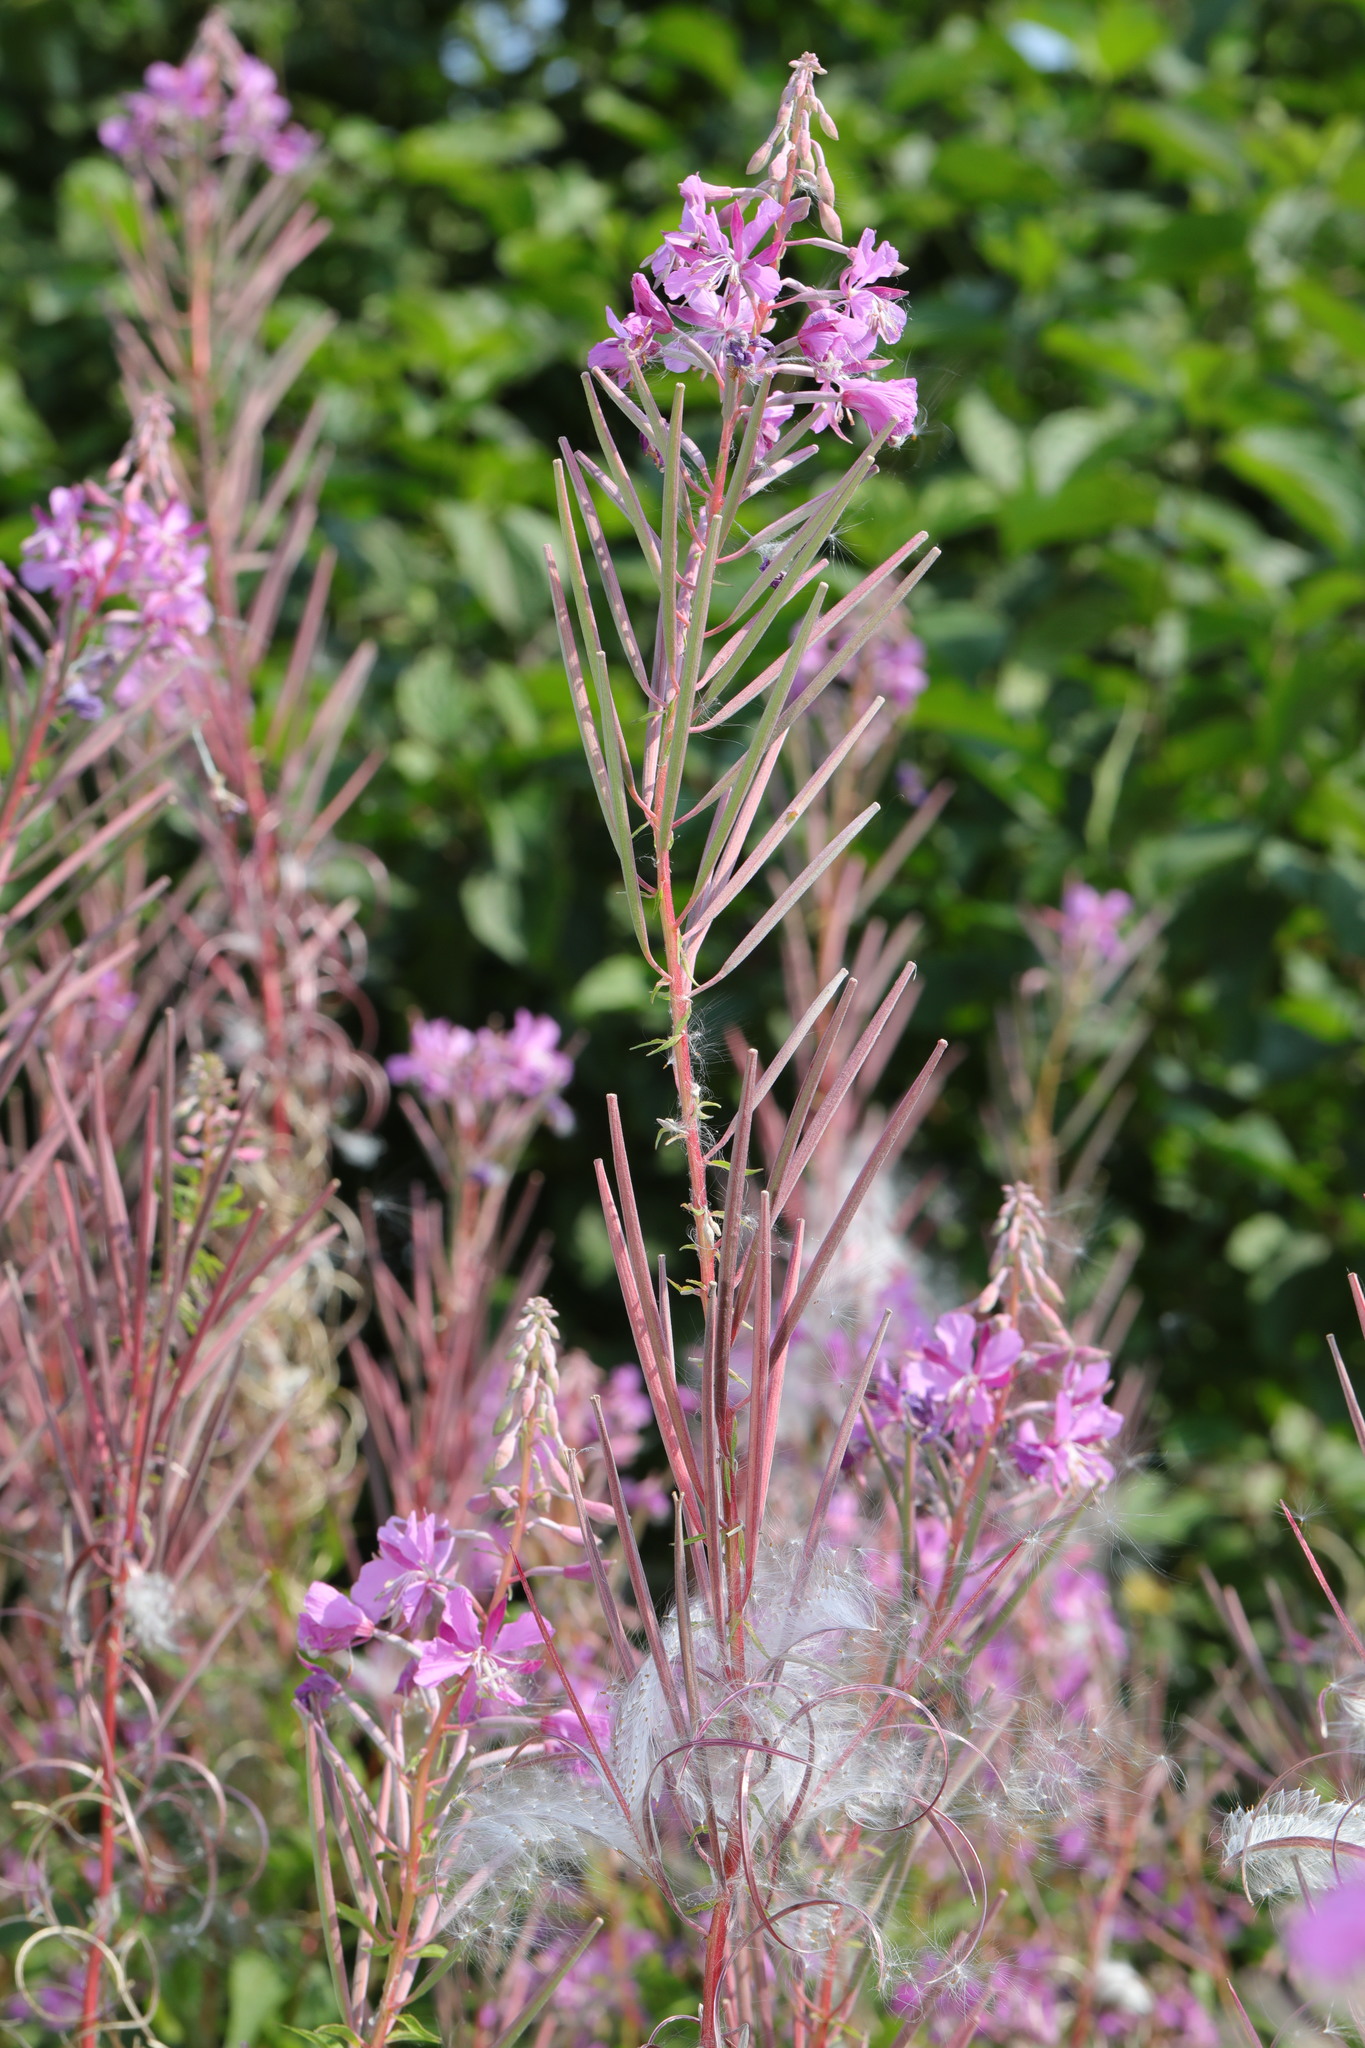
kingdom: Plantae
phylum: Tracheophyta
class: Magnoliopsida
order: Myrtales
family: Onagraceae
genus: Chamaenerion
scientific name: Chamaenerion angustifolium
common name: Fireweed
